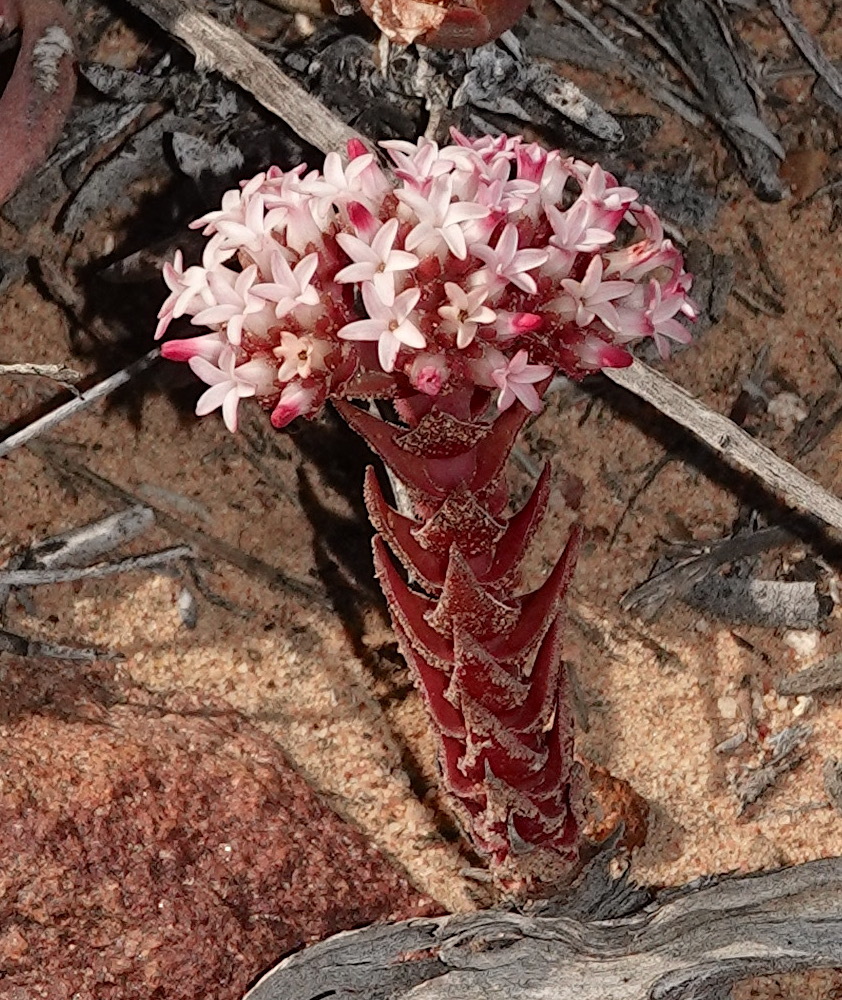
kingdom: Plantae
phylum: Tracheophyta
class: Magnoliopsida
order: Saxifragales
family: Crassulaceae
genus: Crassula
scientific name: Crassula alpestris
